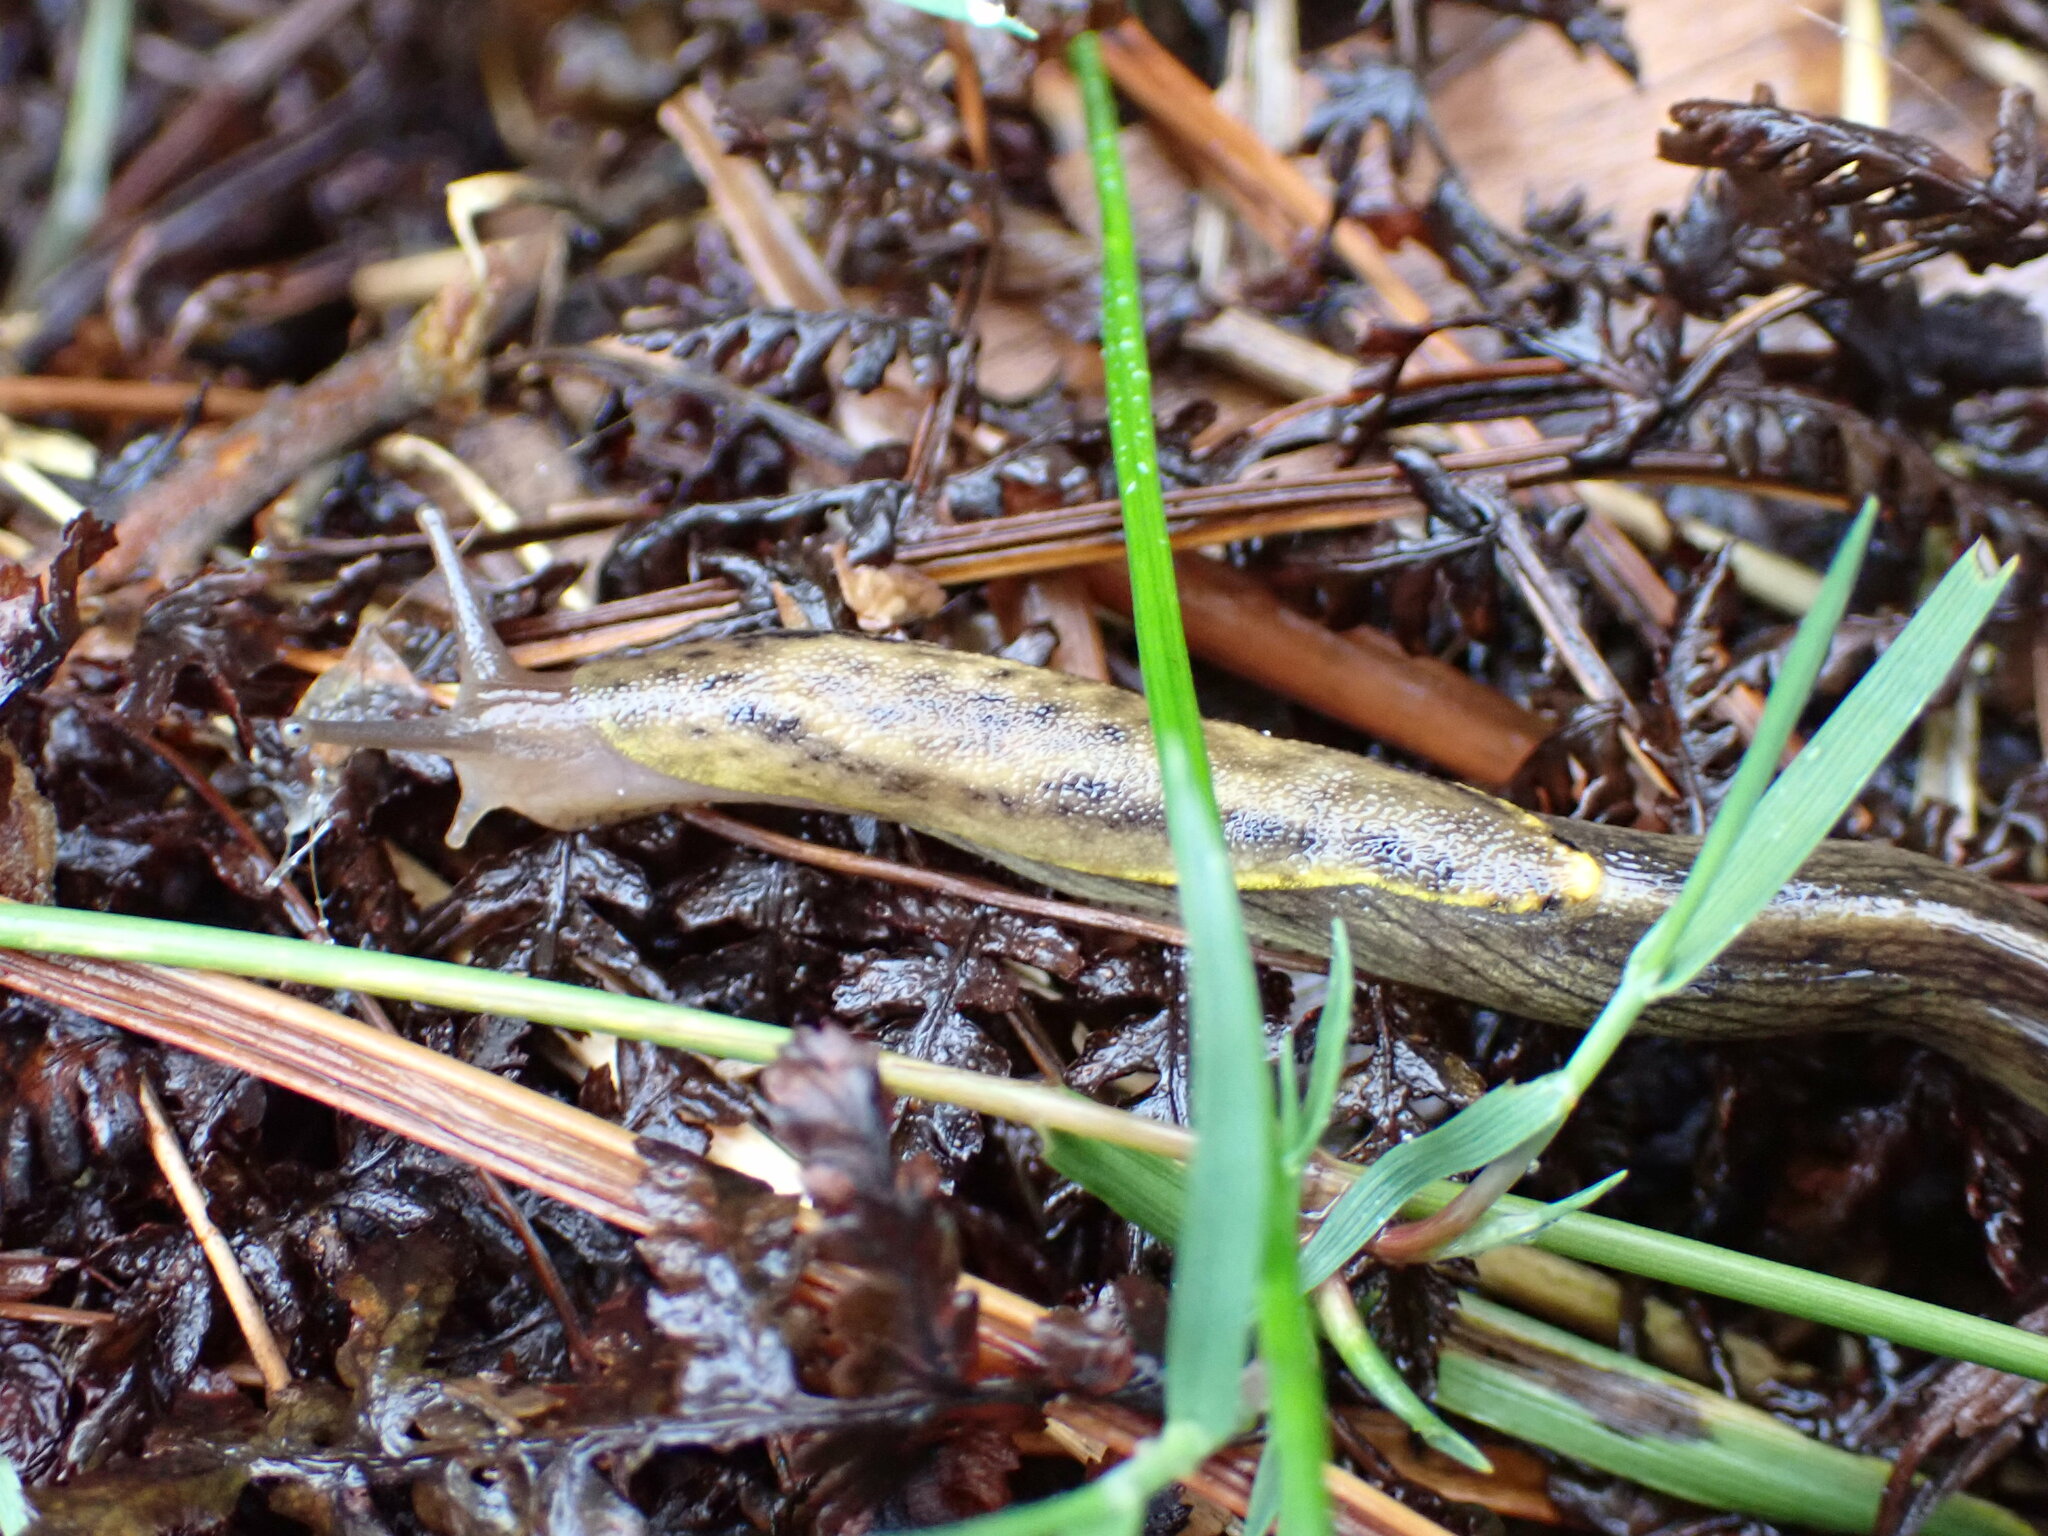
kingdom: Animalia
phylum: Mollusca
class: Gastropoda
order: Stylommatophora
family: Ariolimacidae
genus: Prophysaon
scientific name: Prophysaon foliolatum
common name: Yellow-bordered taildropper
